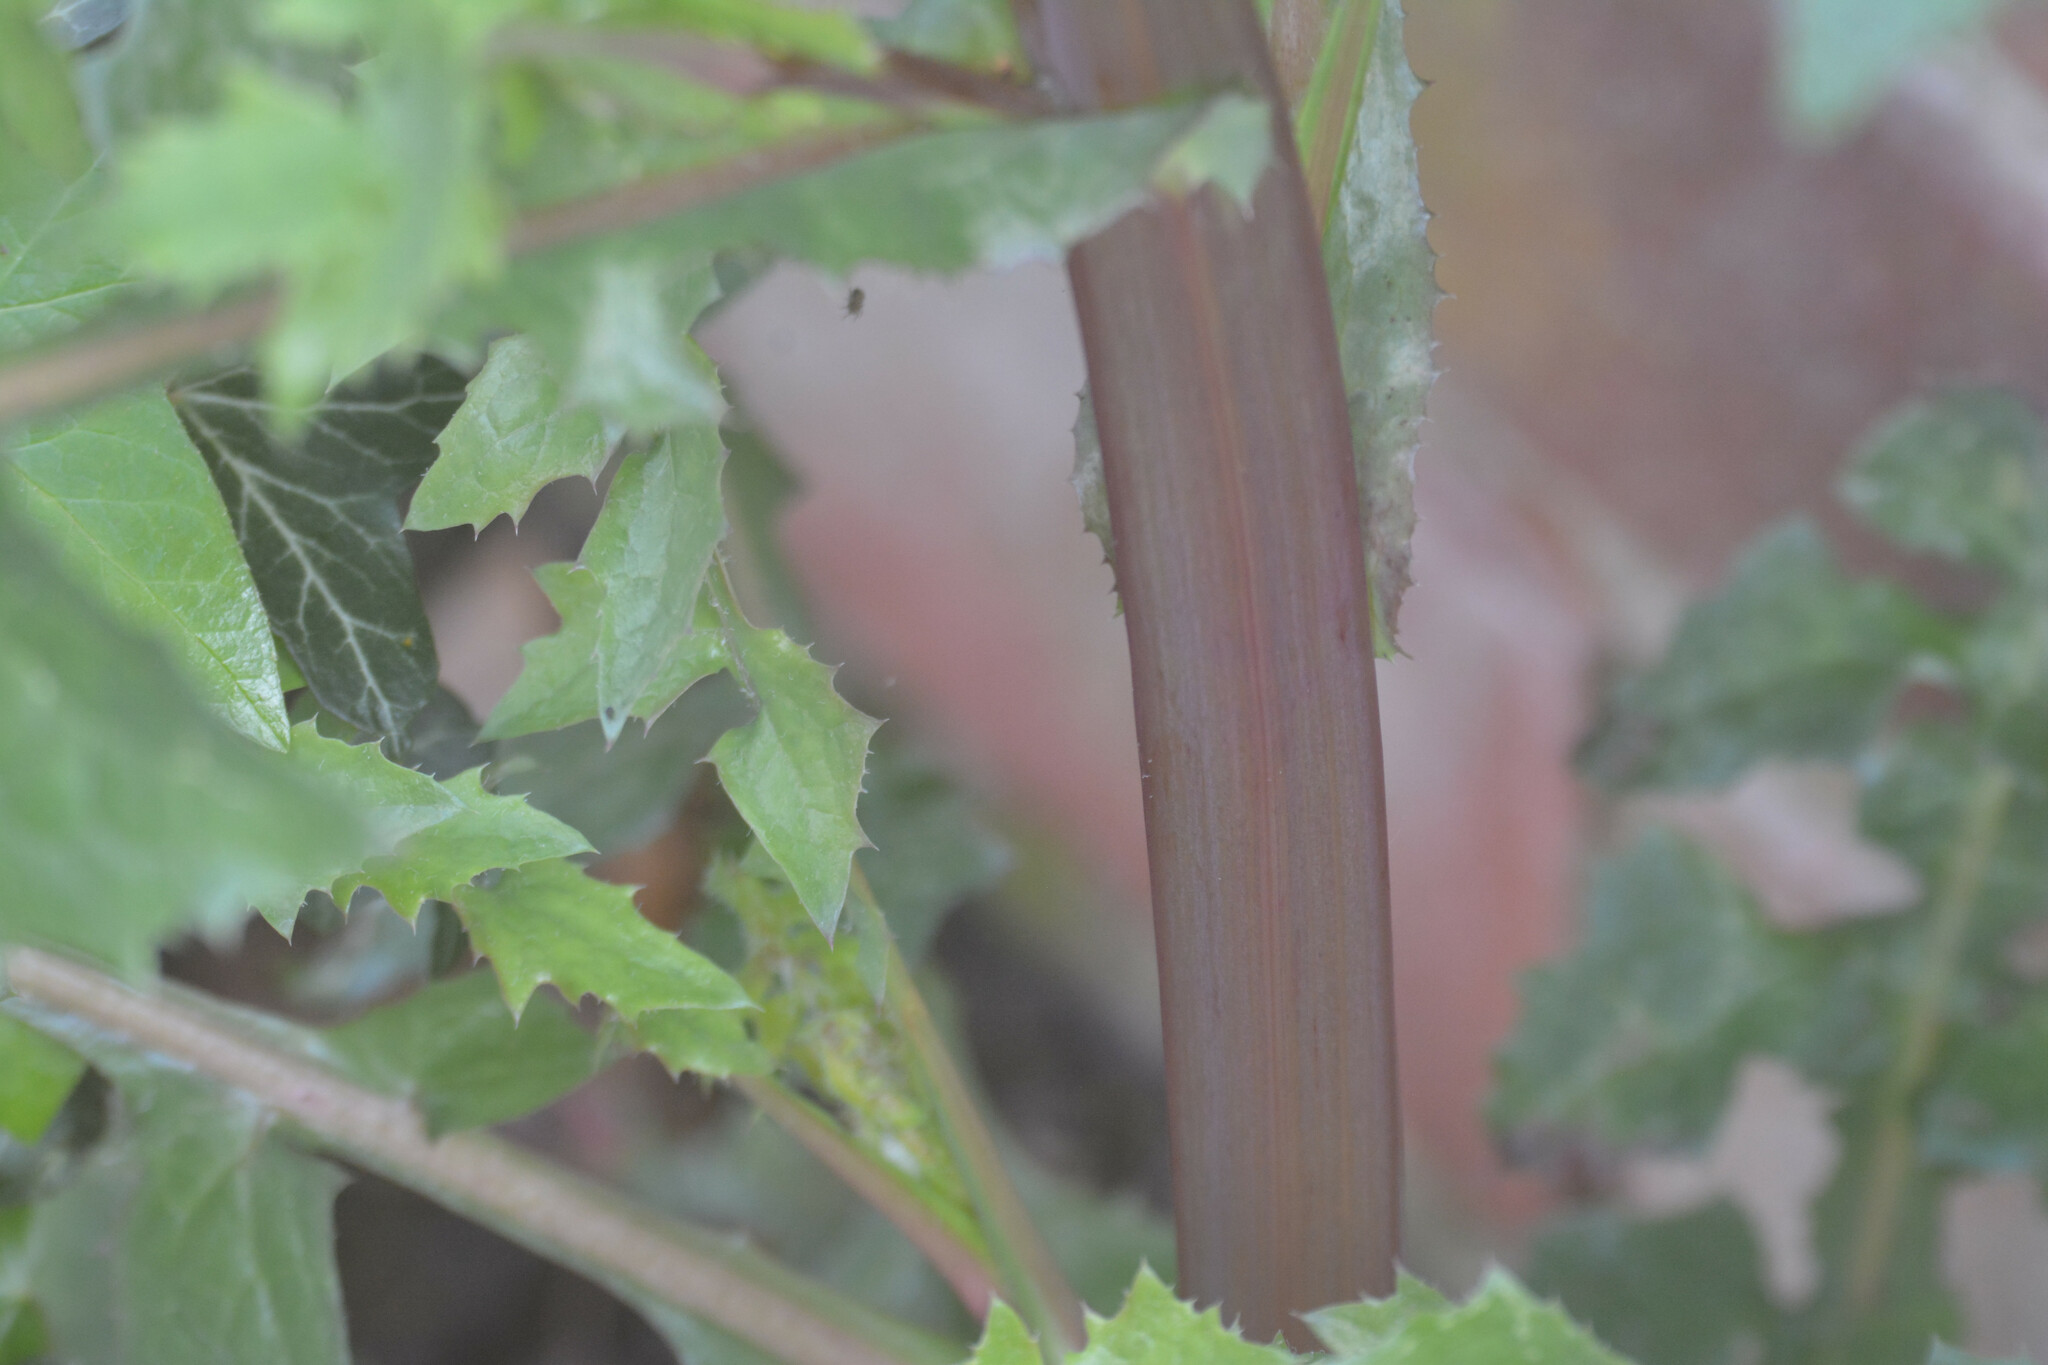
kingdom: Plantae
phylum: Tracheophyta
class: Magnoliopsida
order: Asterales
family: Asteraceae
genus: Sonchus
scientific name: Sonchus oleraceus
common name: Common sowthistle
